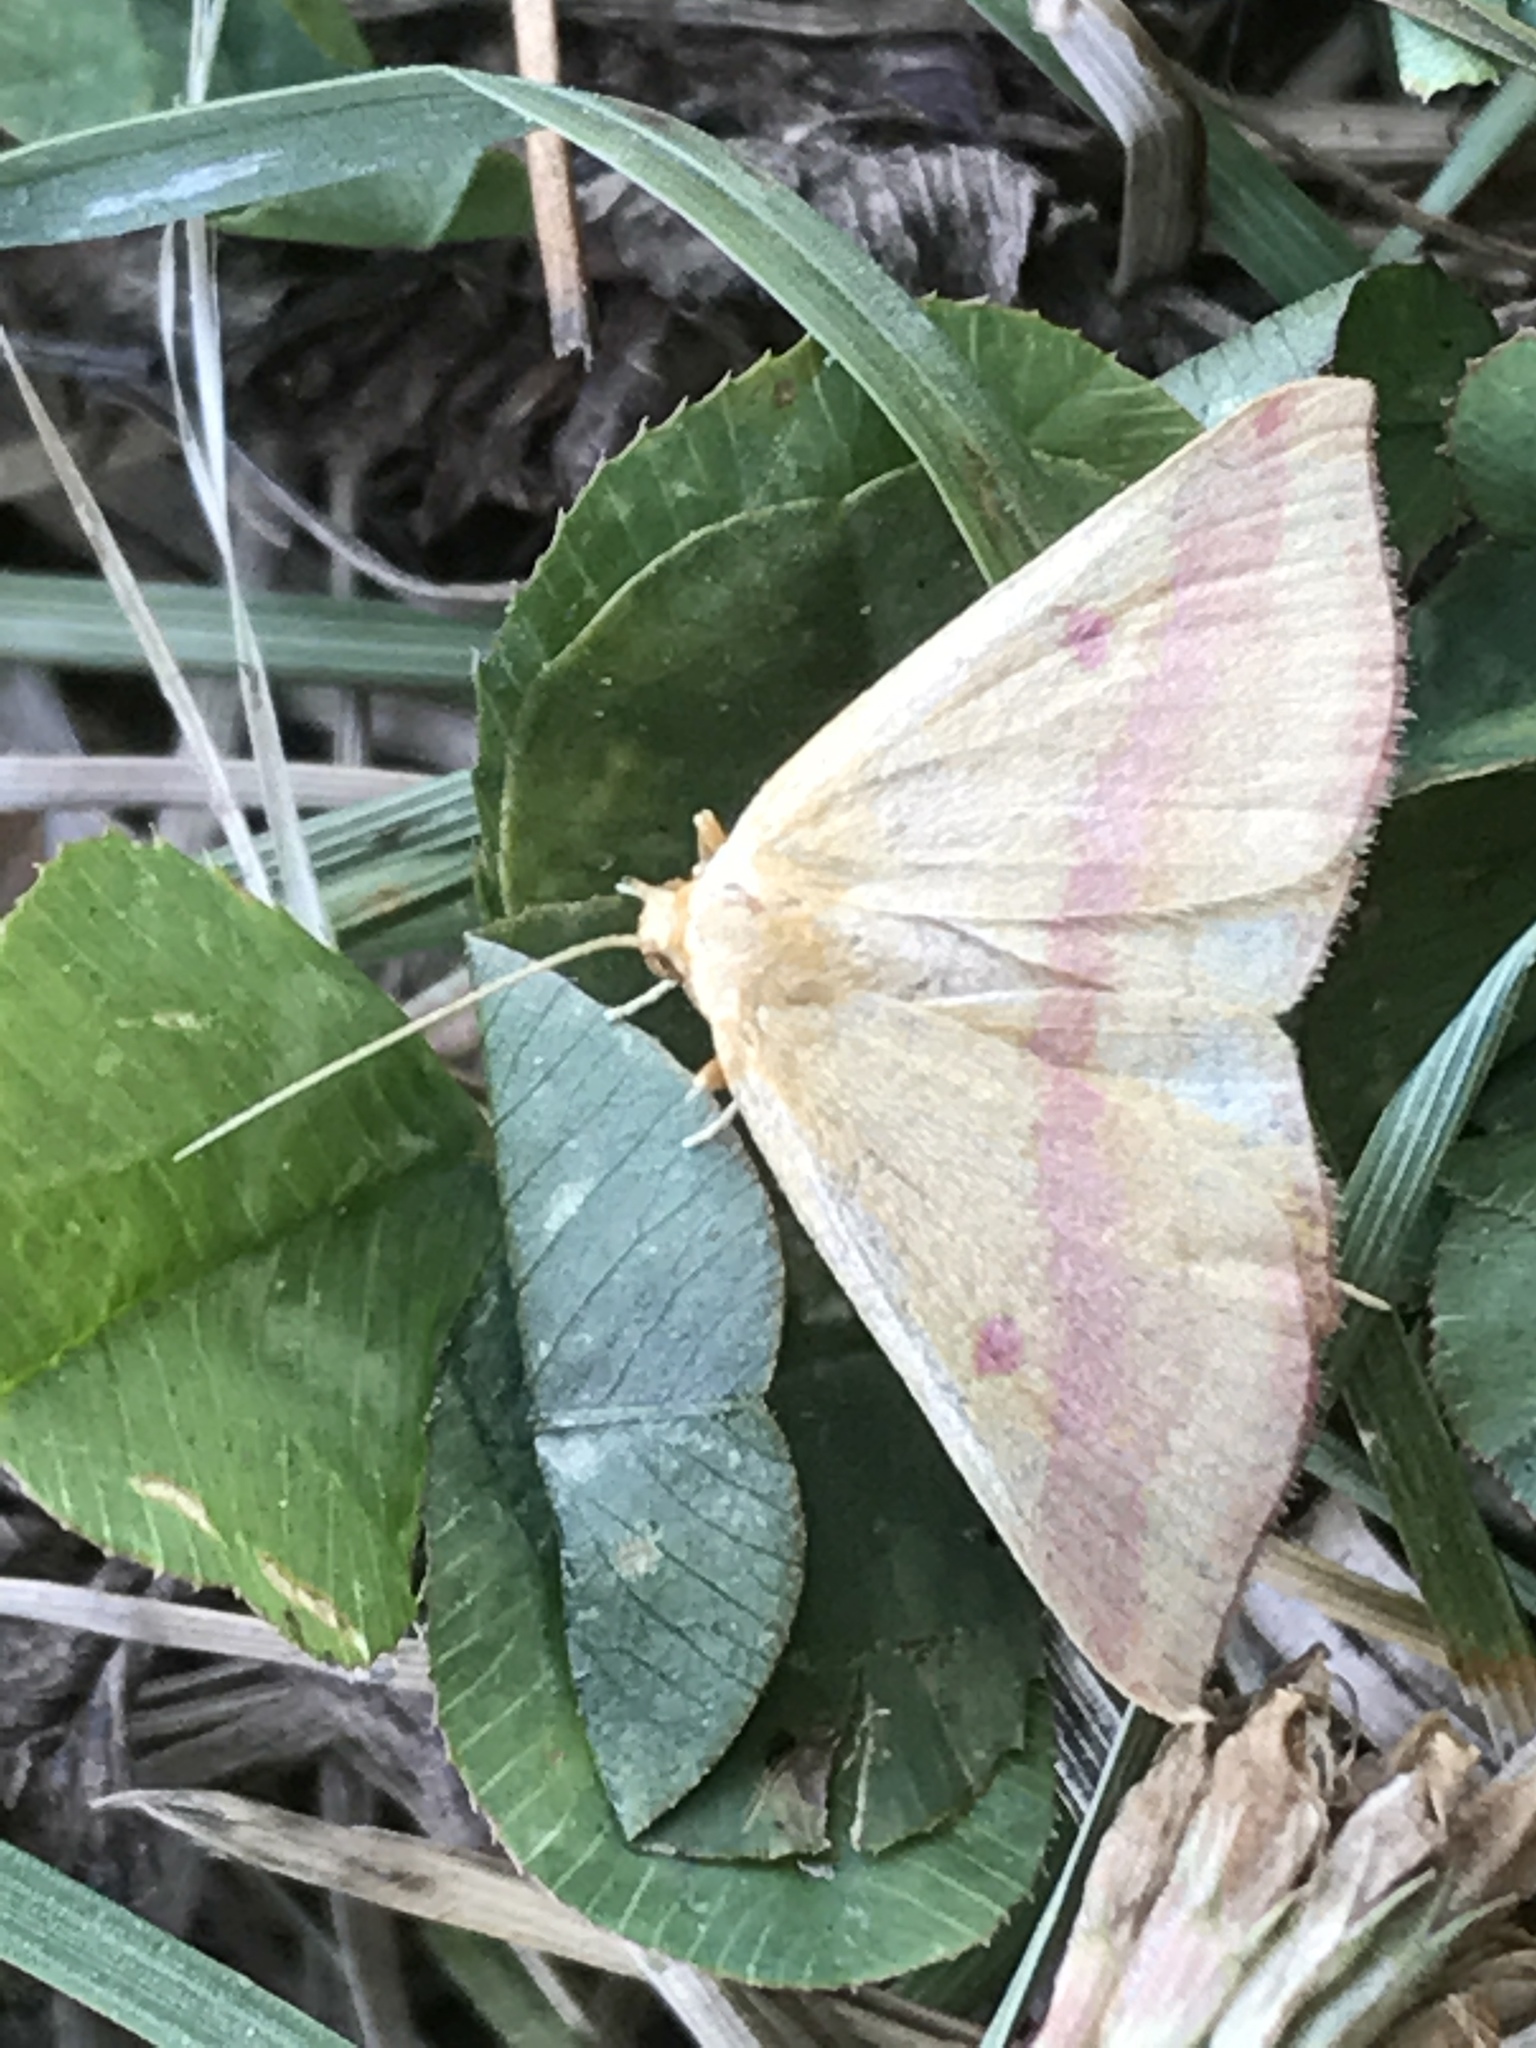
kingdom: Animalia
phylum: Arthropoda
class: Insecta
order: Lepidoptera
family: Geometridae
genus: Haematopis
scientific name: Haematopis grataria
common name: Chickweed geometer
